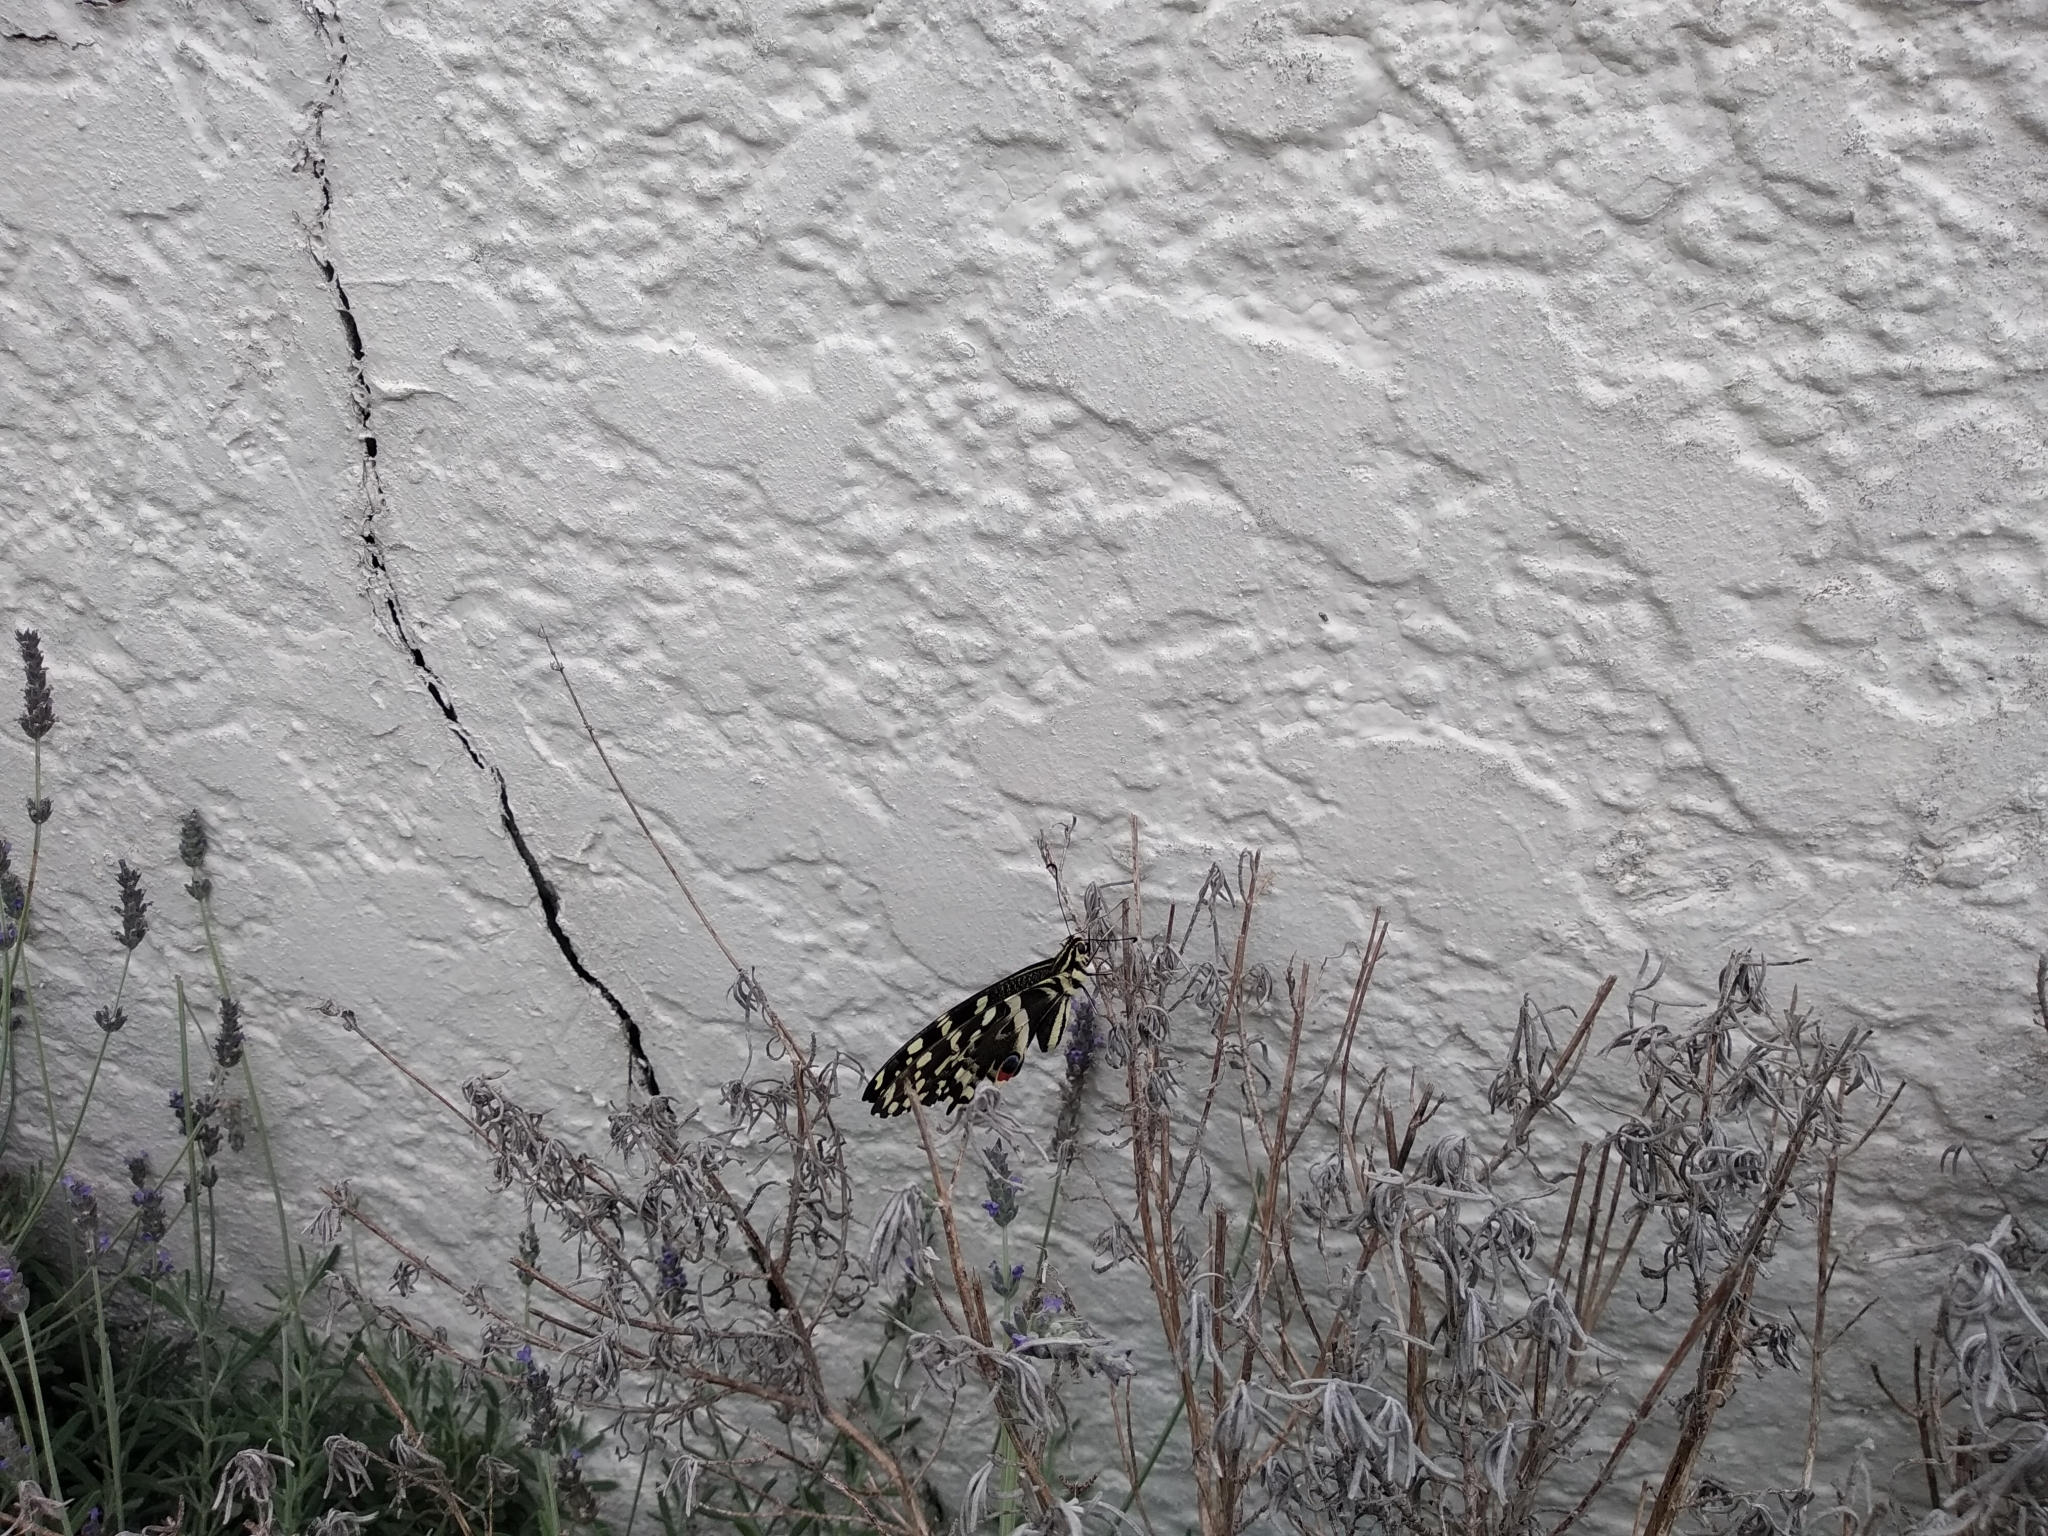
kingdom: Animalia
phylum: Arthropoda
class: Insecta
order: Lepidoptera
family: Papilionidae
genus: Papilio
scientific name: Papilio demodocus
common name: Christmas butterfly
